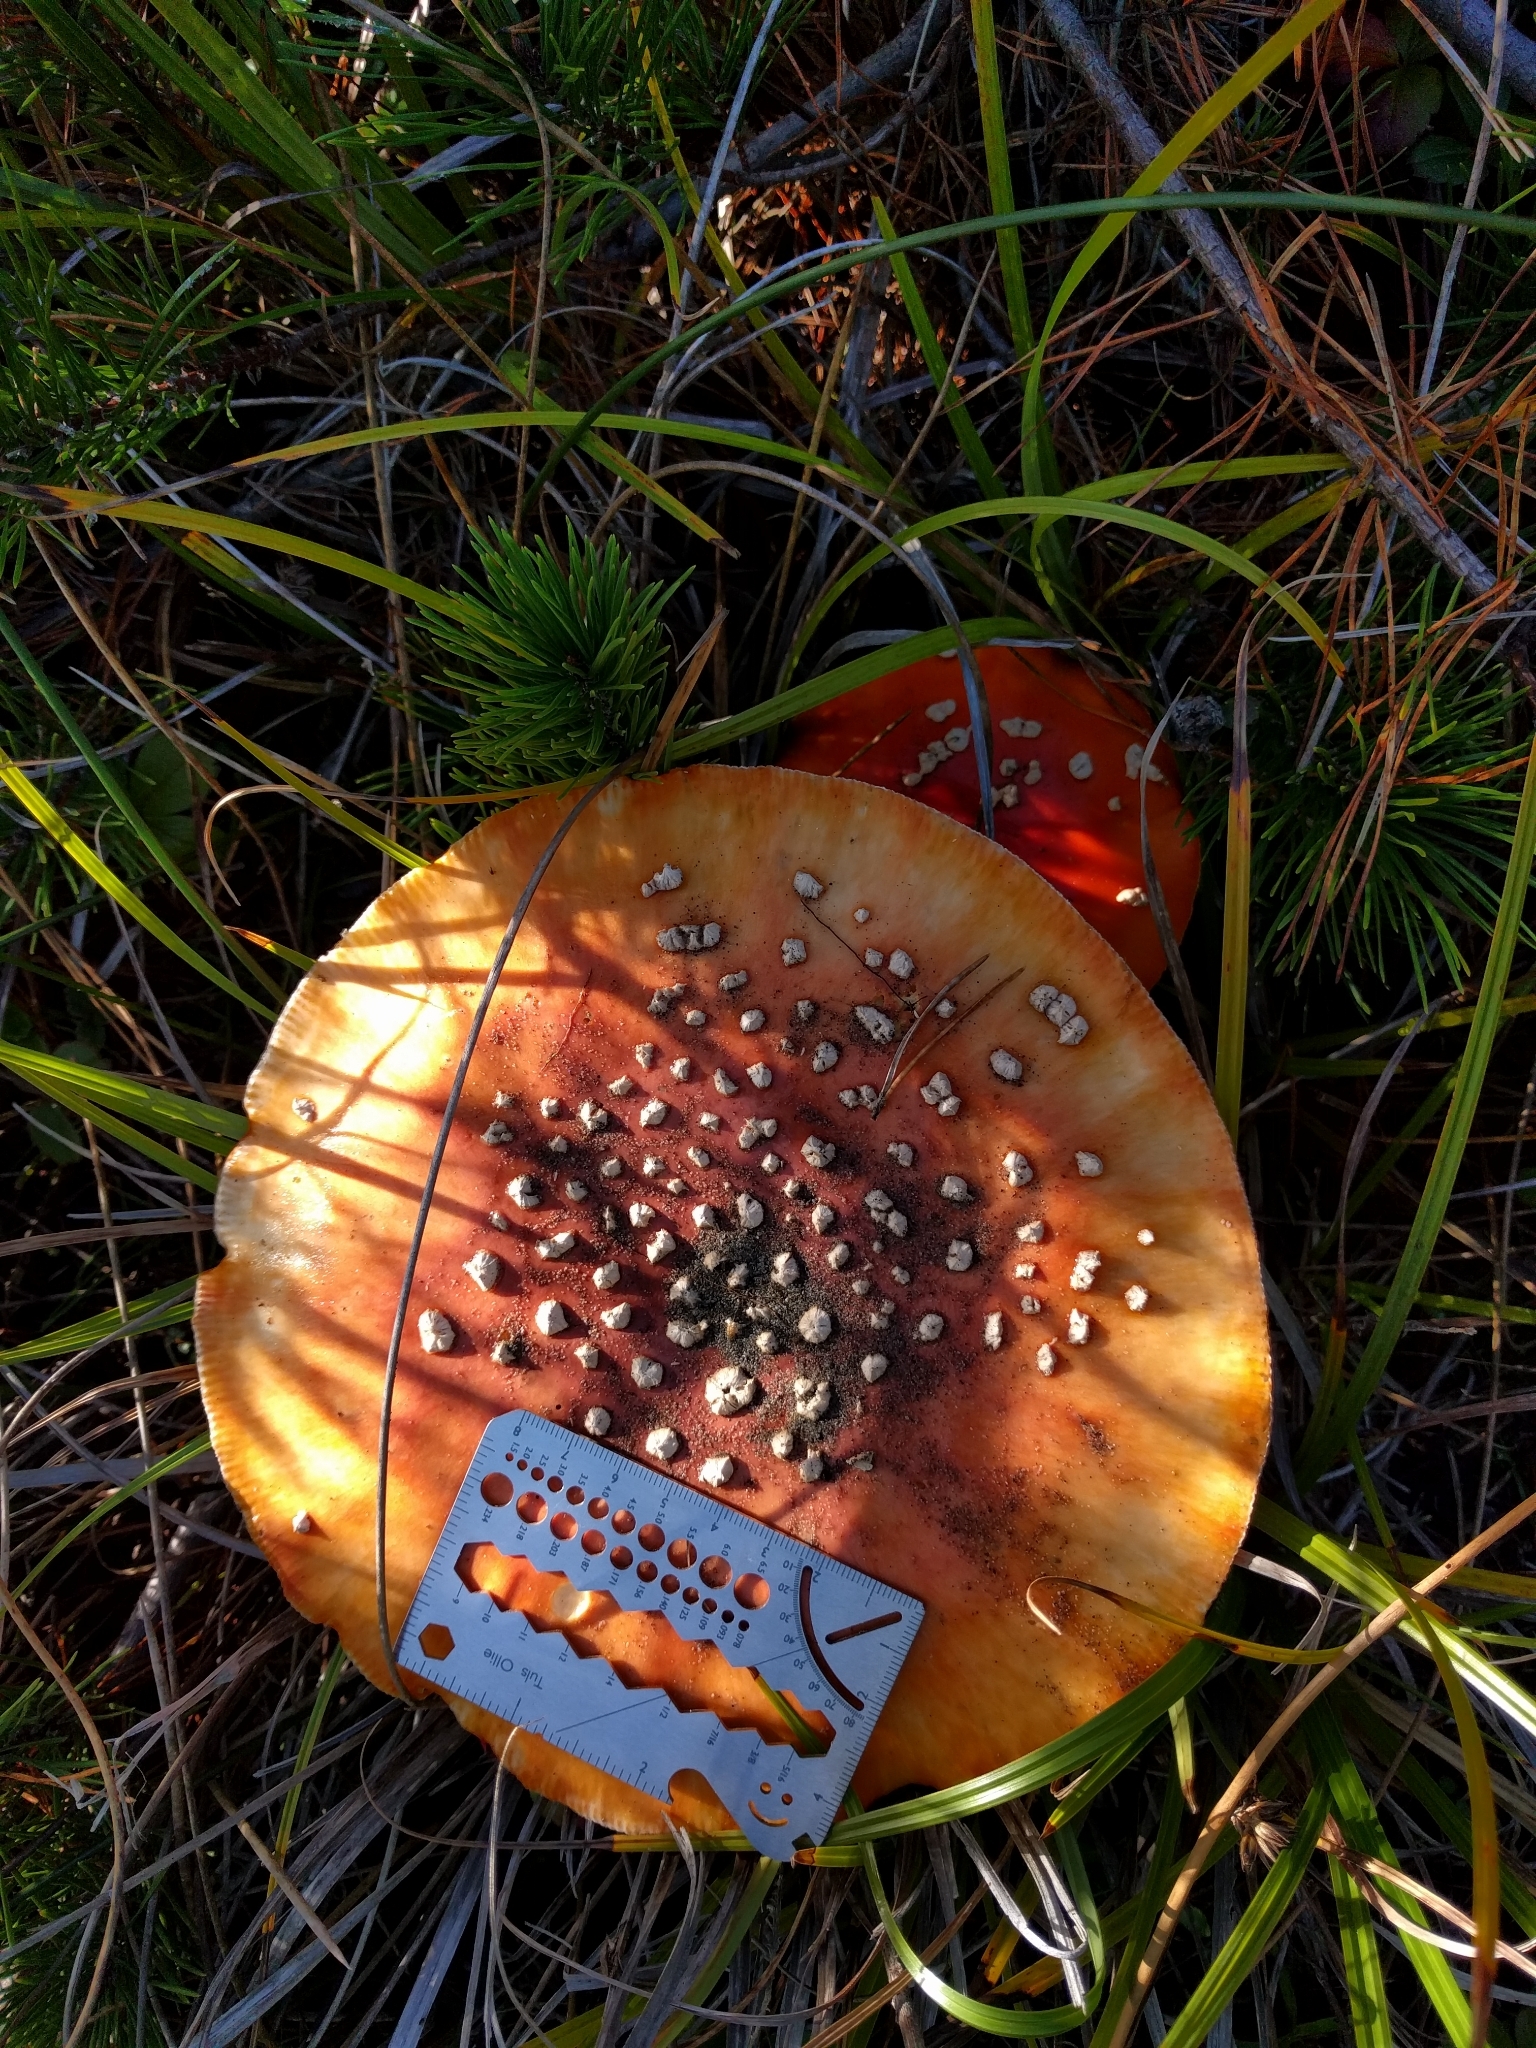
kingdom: Fungi
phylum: Basidiomycota
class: Agaricomycetes
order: Agaricales
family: Amanitaceae
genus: Amanita
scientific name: Amanita muscaria
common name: Fly agaric
